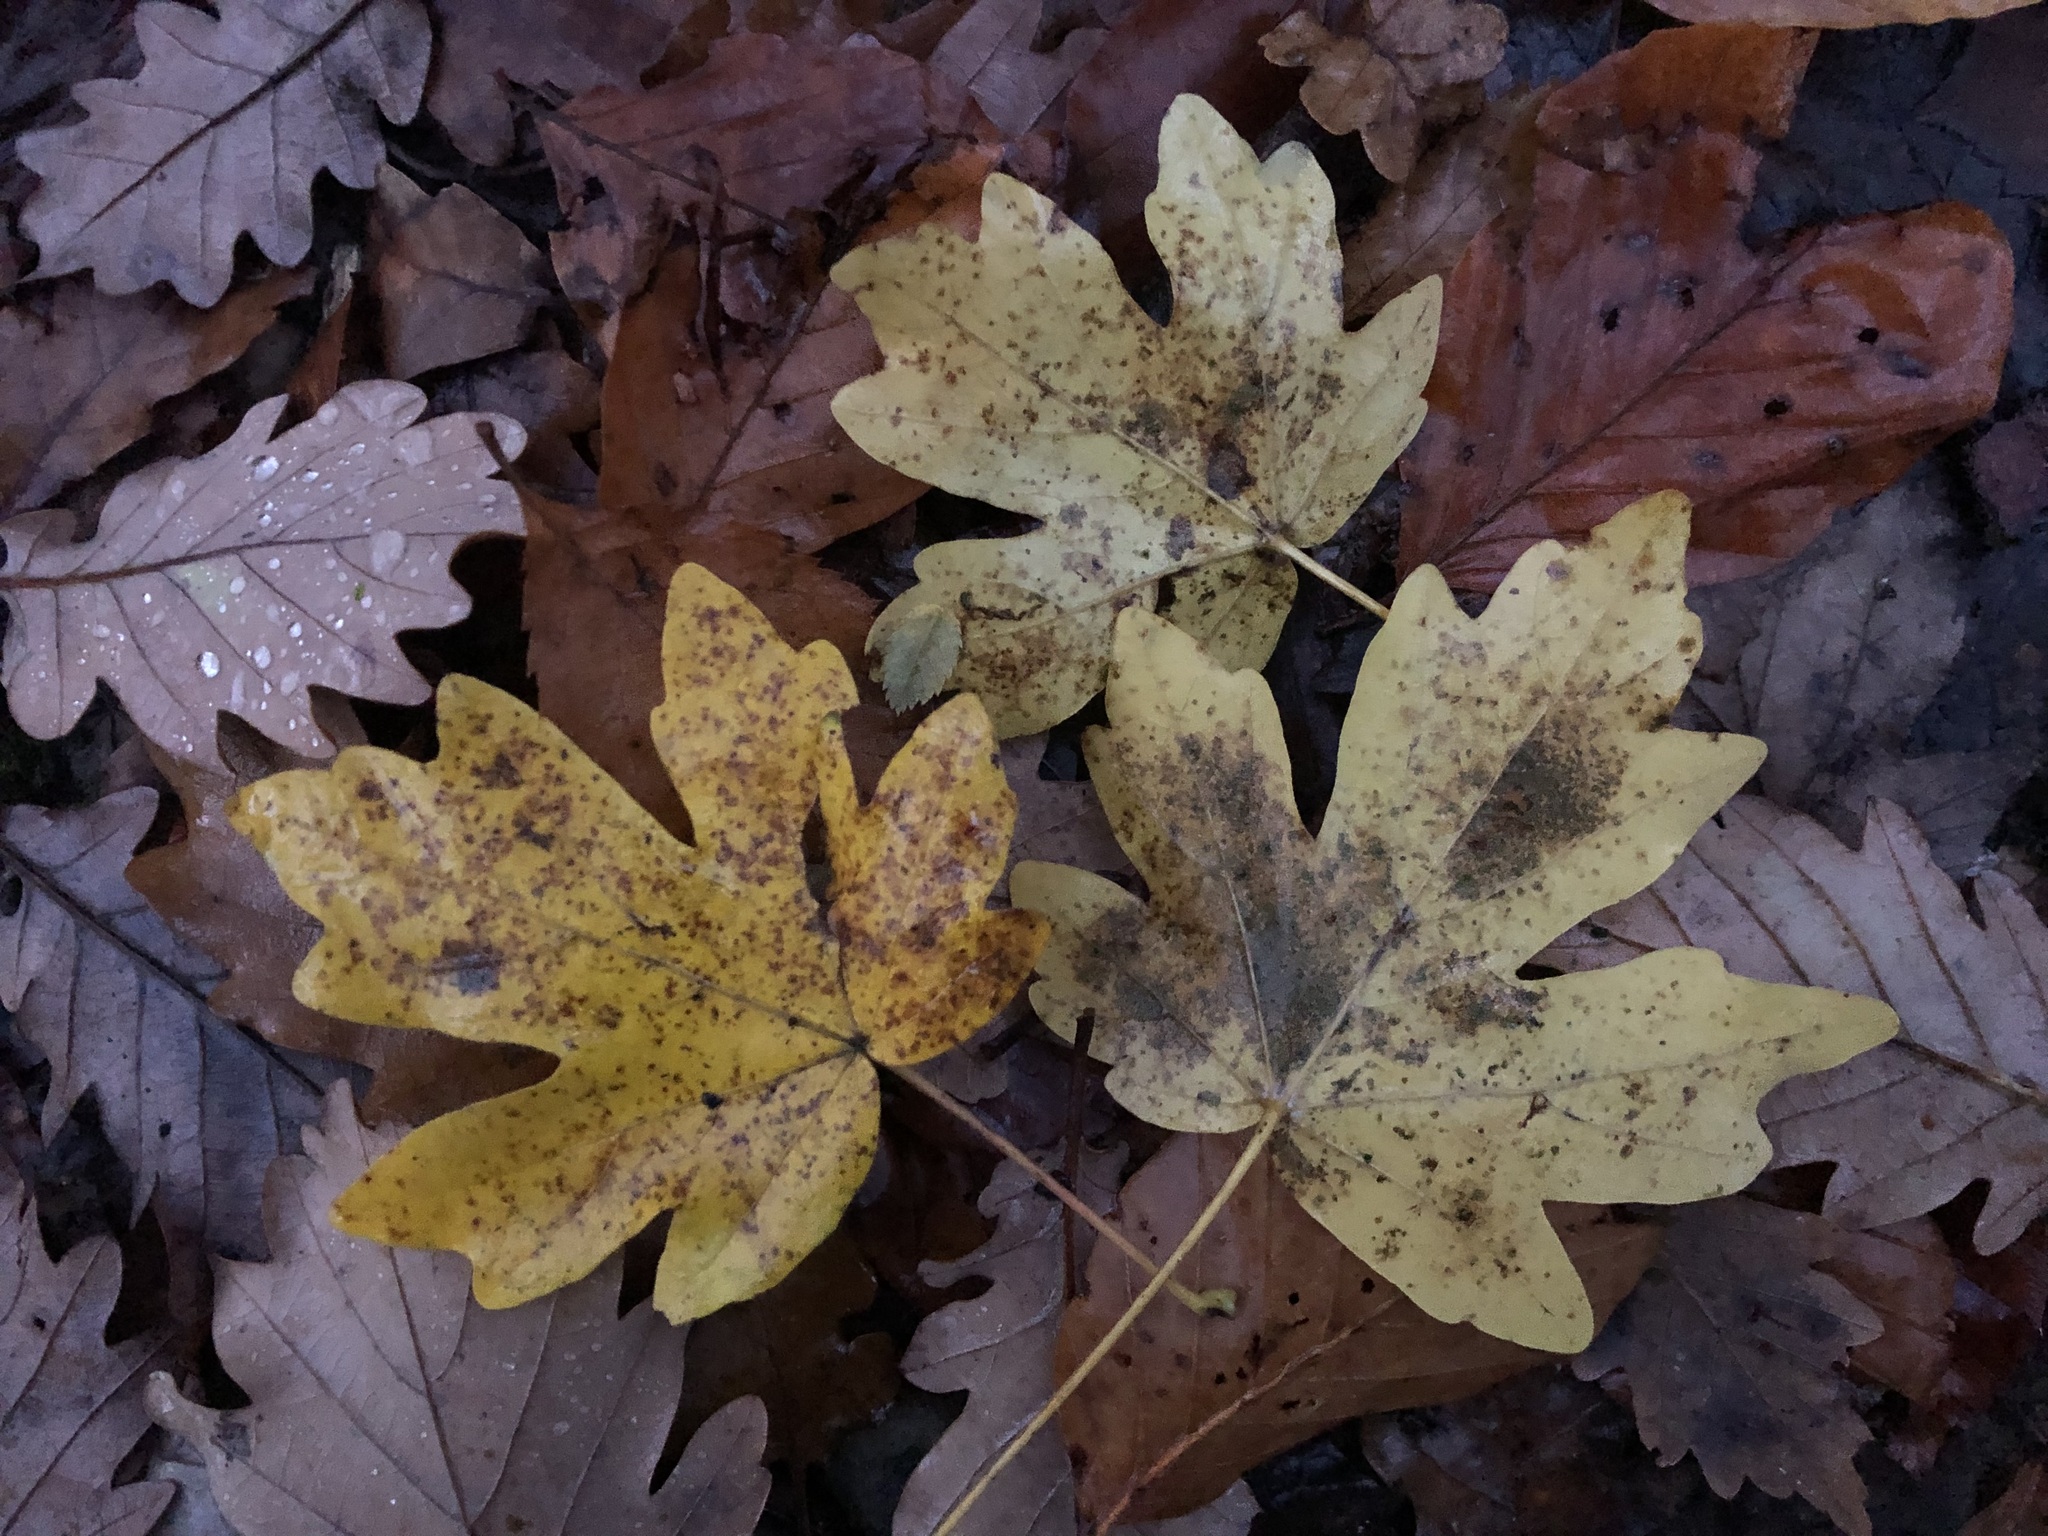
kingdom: Plantae
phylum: Tracheophyta
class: Magnoliopsida
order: Sapindales
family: Sapindaceae
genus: Acer
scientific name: Acer campestre
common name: Field maple
